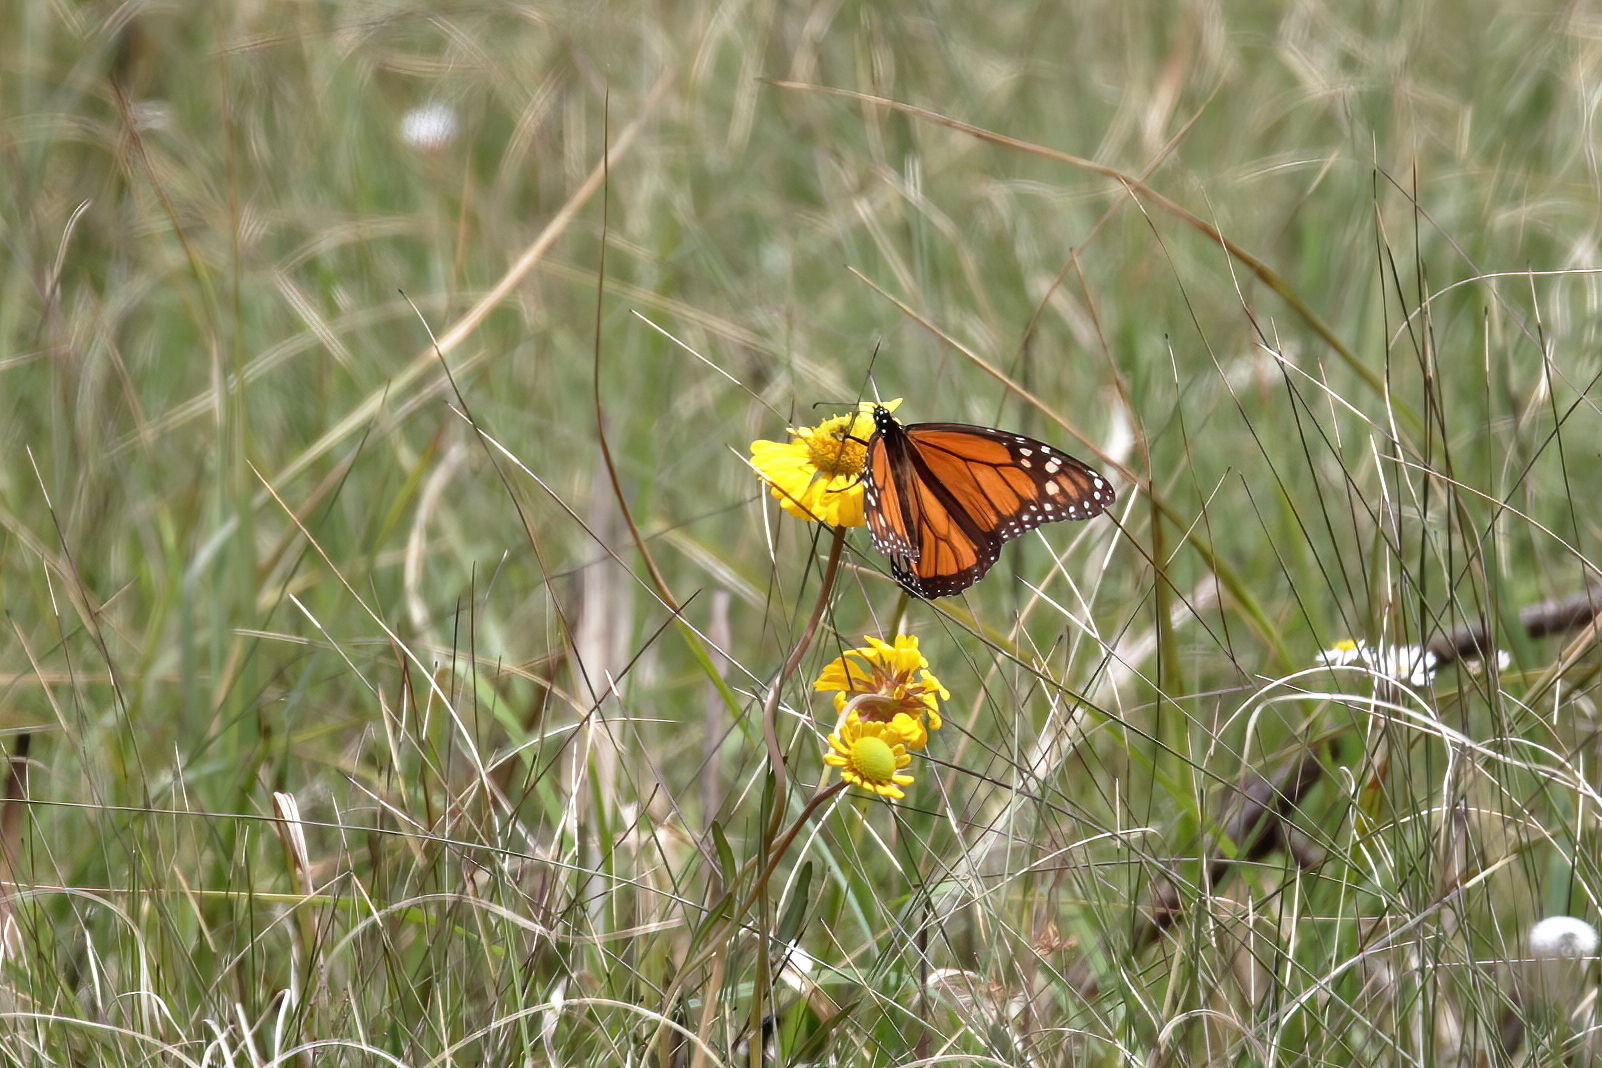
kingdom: Animalia
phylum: Arthropoda
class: Insecta
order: Lepidoptera
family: Nymphalidae
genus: Danaus
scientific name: Danaus plexippus
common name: Monarch
